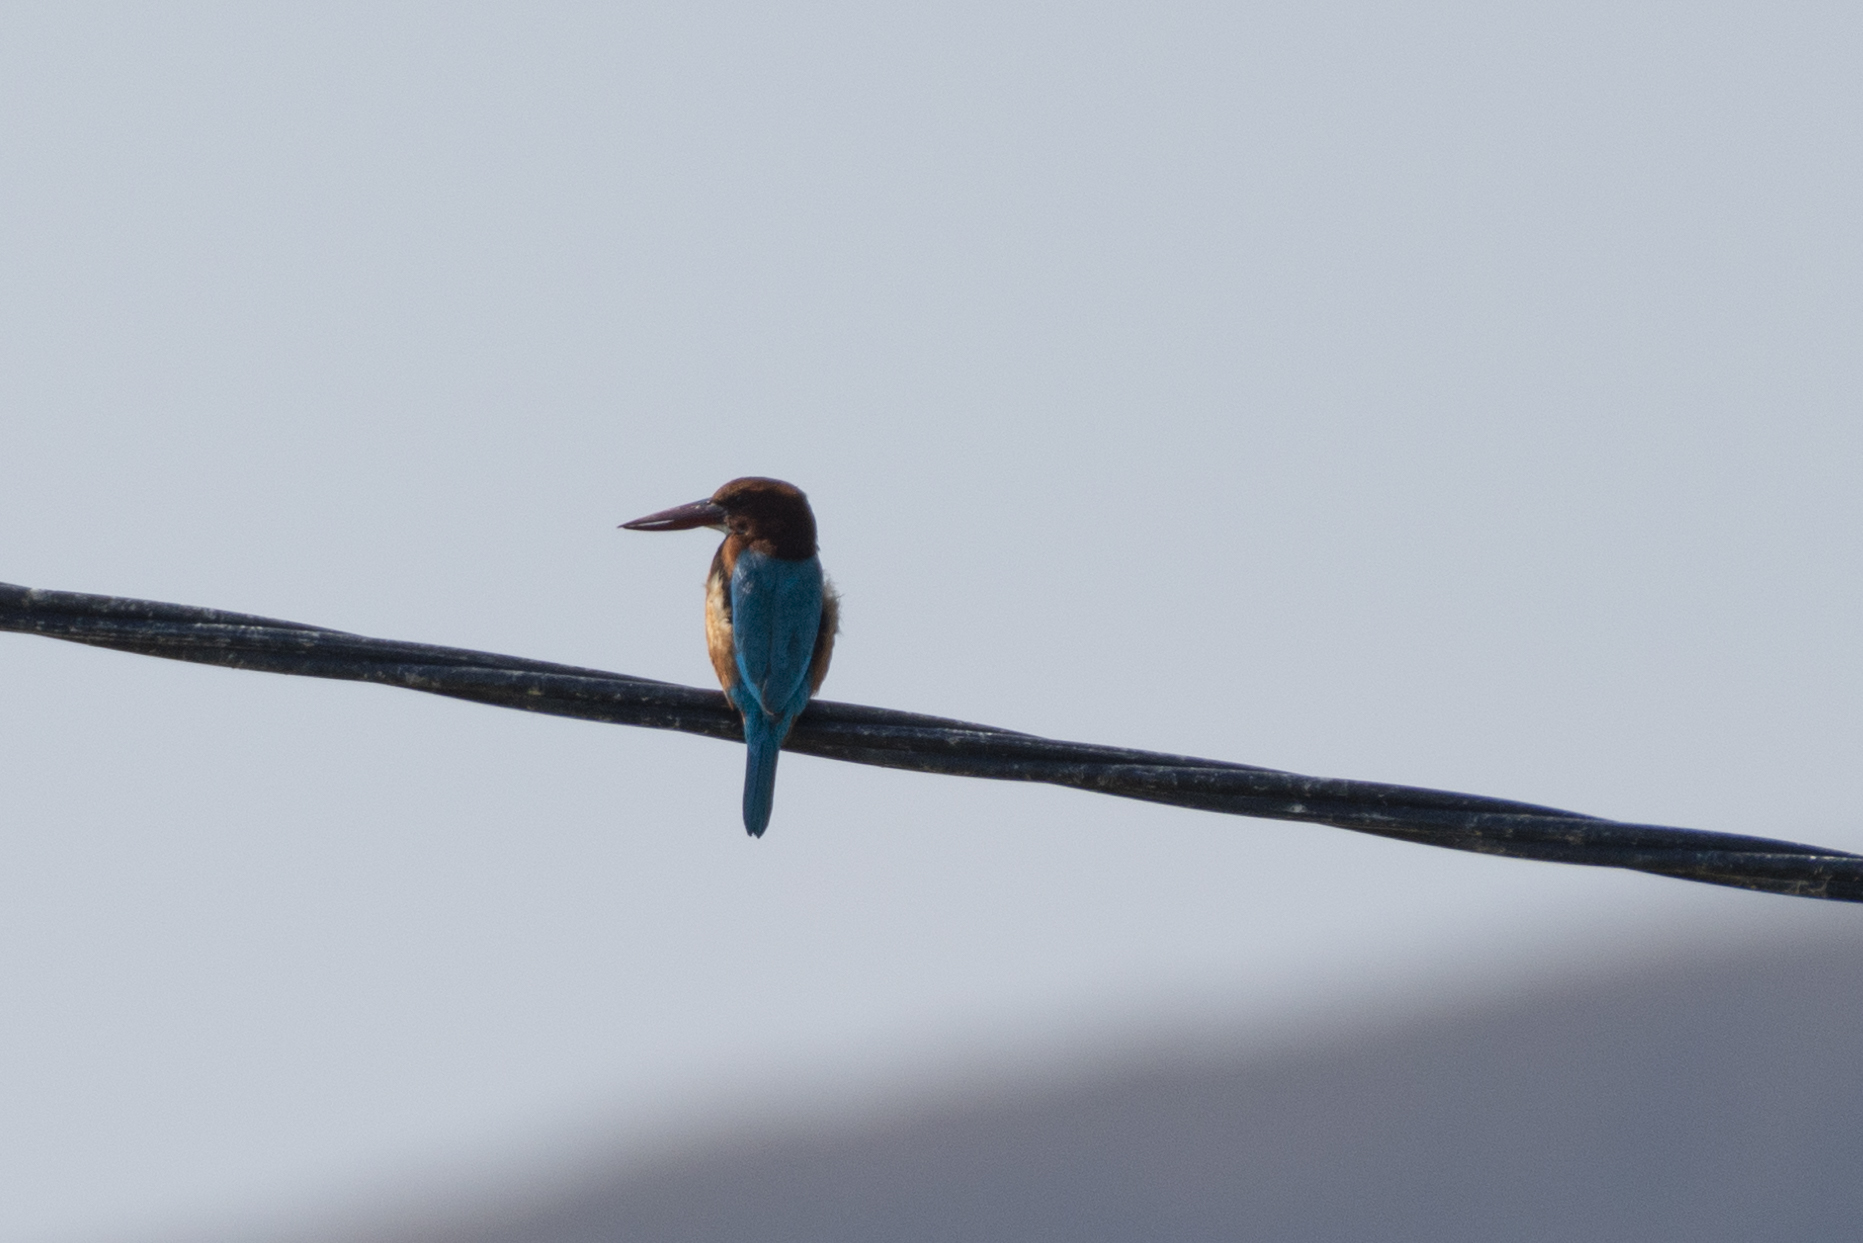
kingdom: Animalia
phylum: Chordata
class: Aves
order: Coraciiformes
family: Alcedinidae
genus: Halcyon
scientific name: Halcyon smyrnensis
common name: White-throated kingfisher
